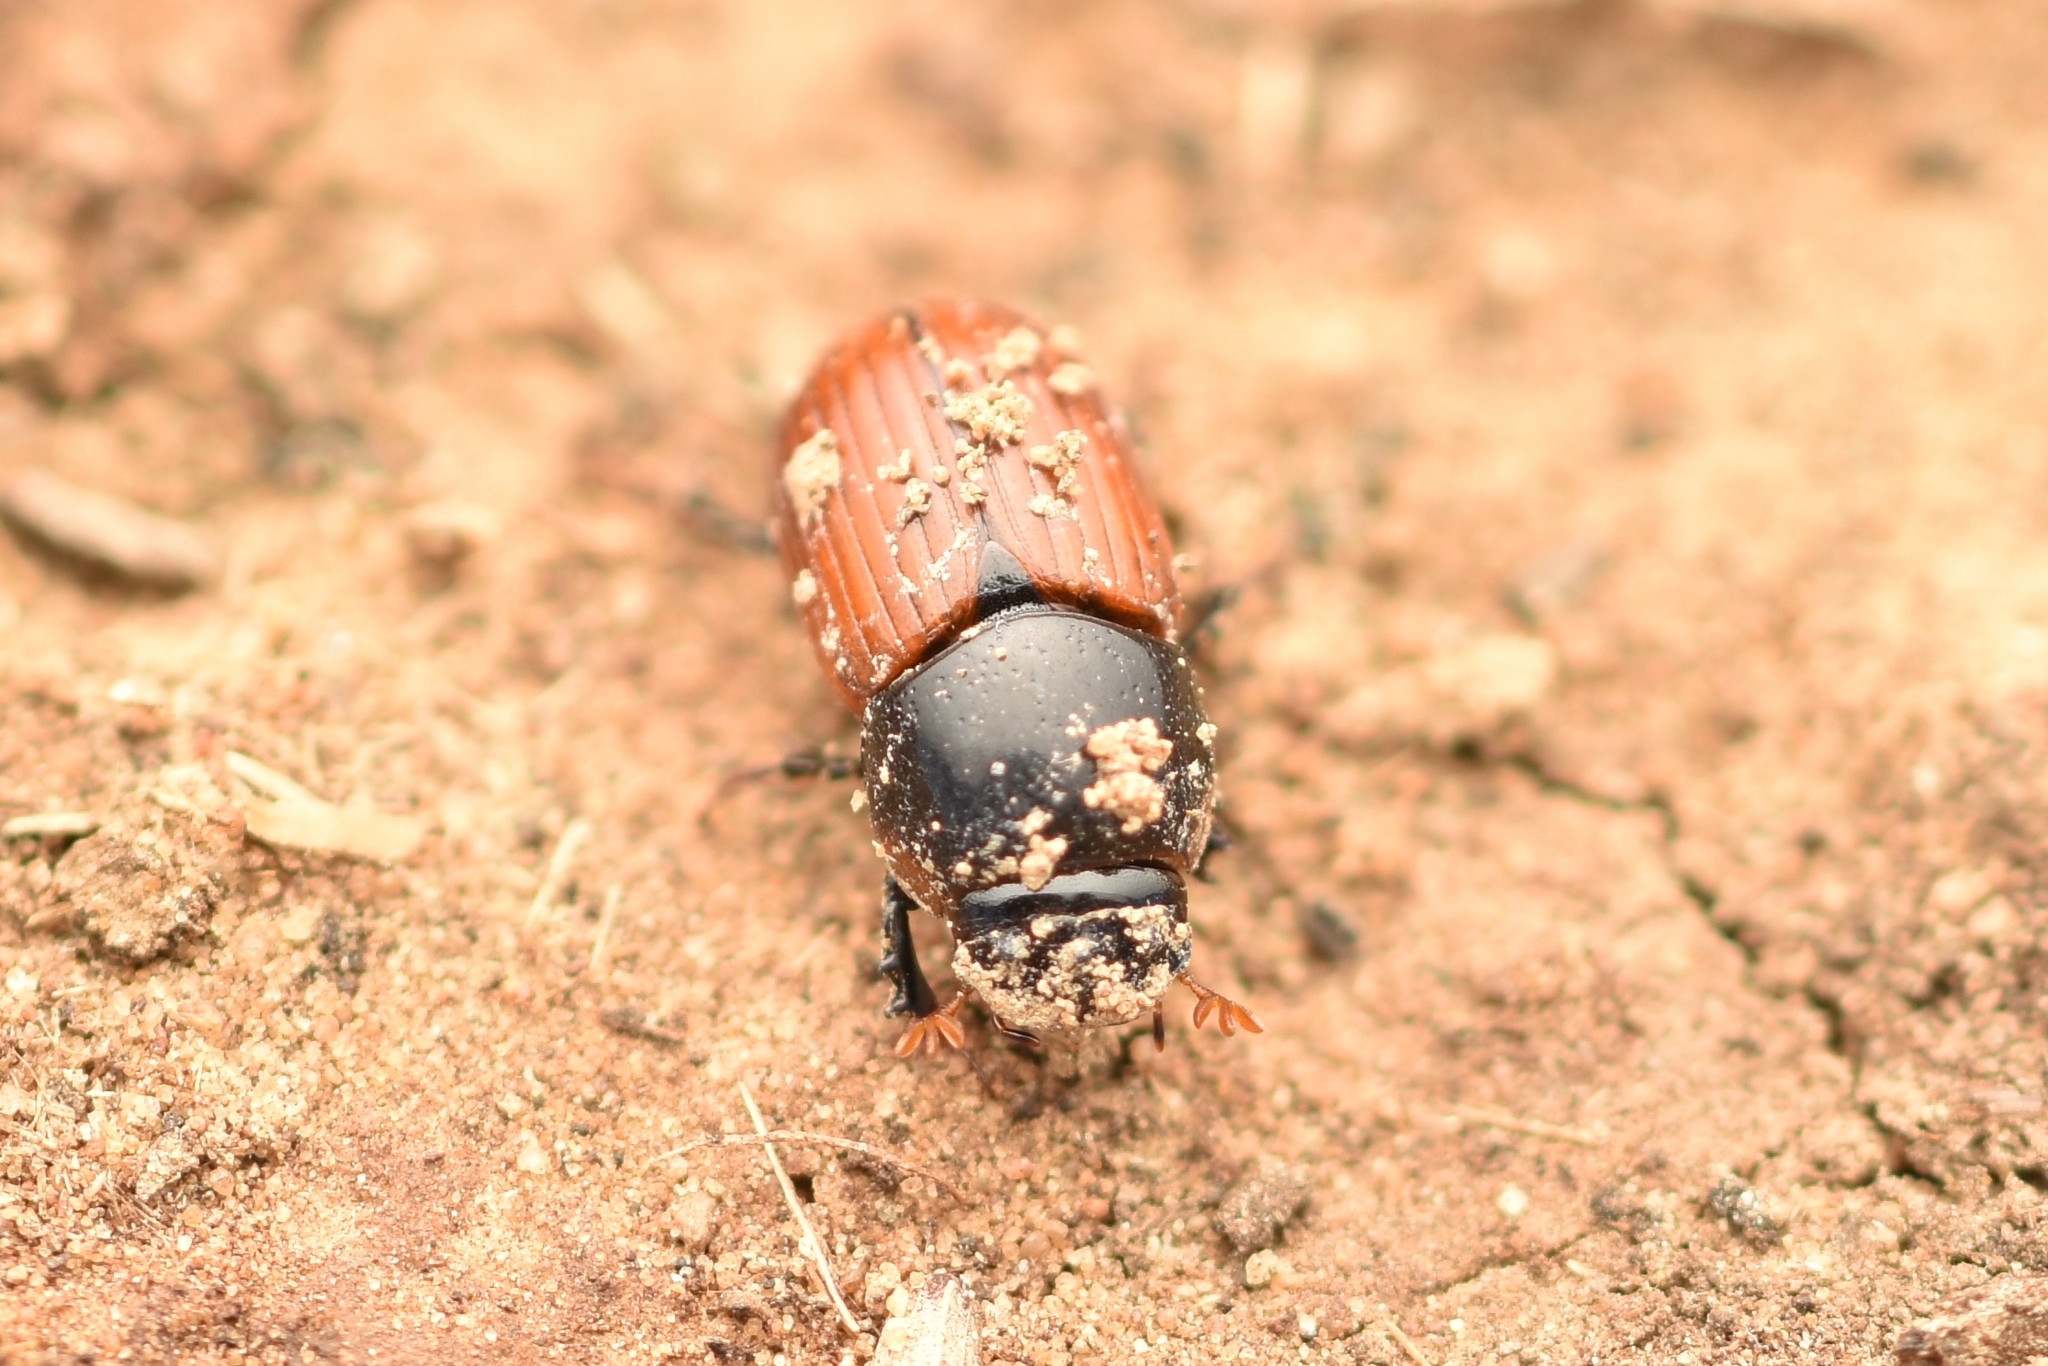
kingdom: Animalia
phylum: Arthropoda
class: Insecta
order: Coleoptera
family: Scarabaeidae
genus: Aphodius
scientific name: Aphodius pedellus
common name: Common dung beetle
